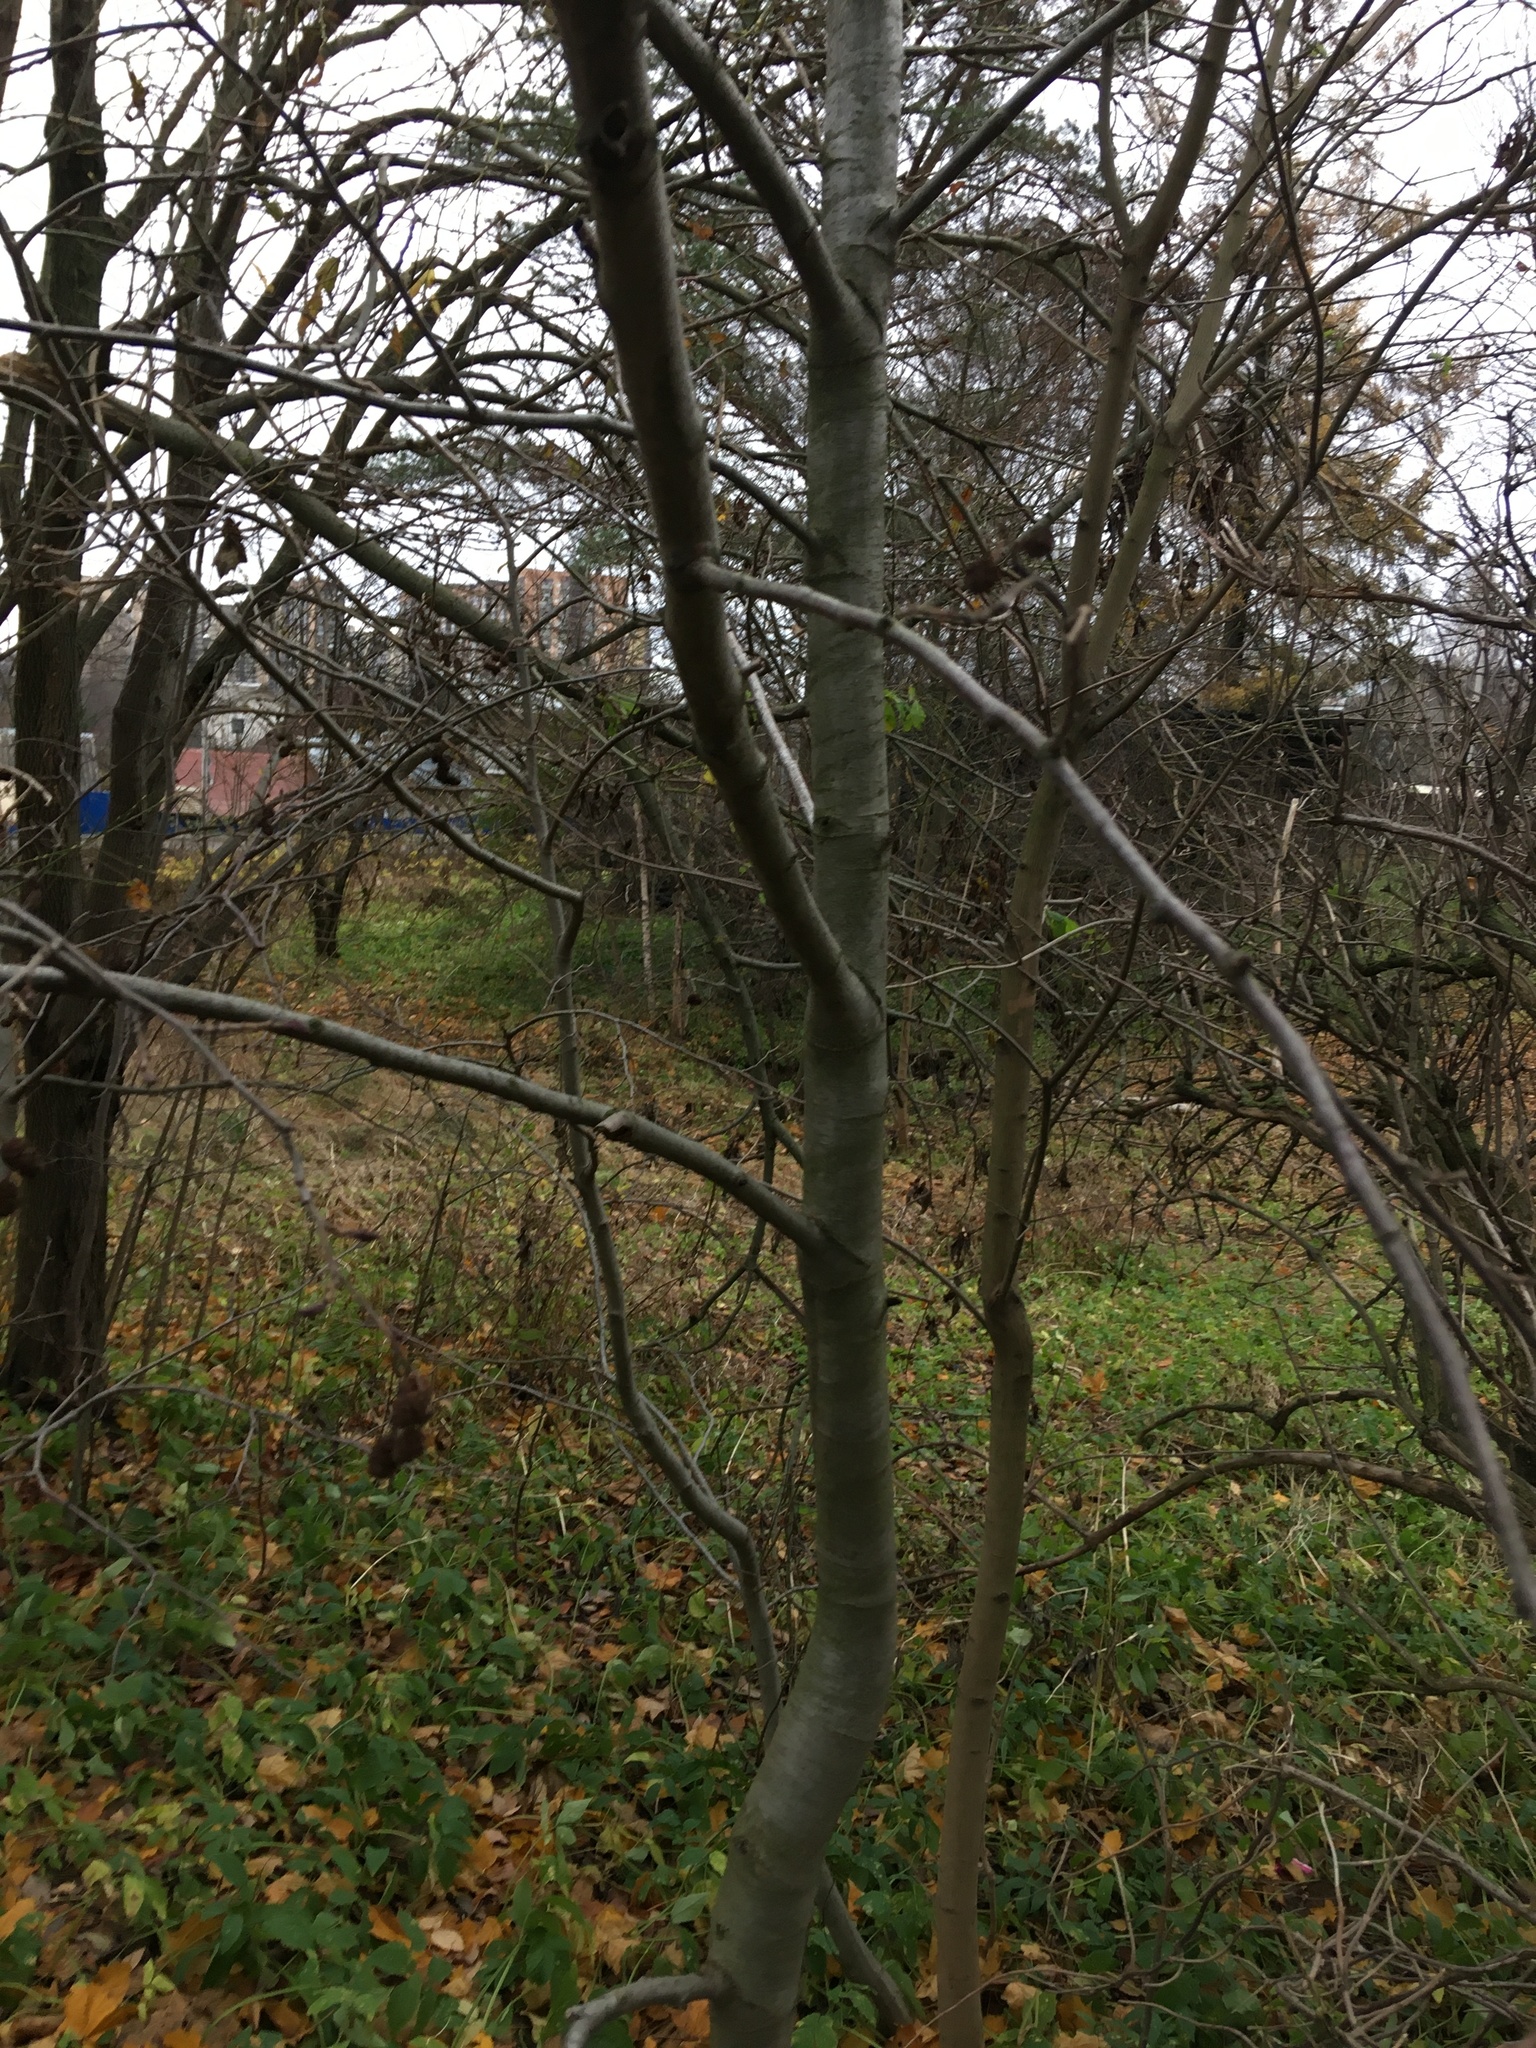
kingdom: Plantae
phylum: Tracheophyta
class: Magnoliopsida
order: Fagales
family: Betulaceae
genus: Alnus
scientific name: Alnus incana
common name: Grey alder
